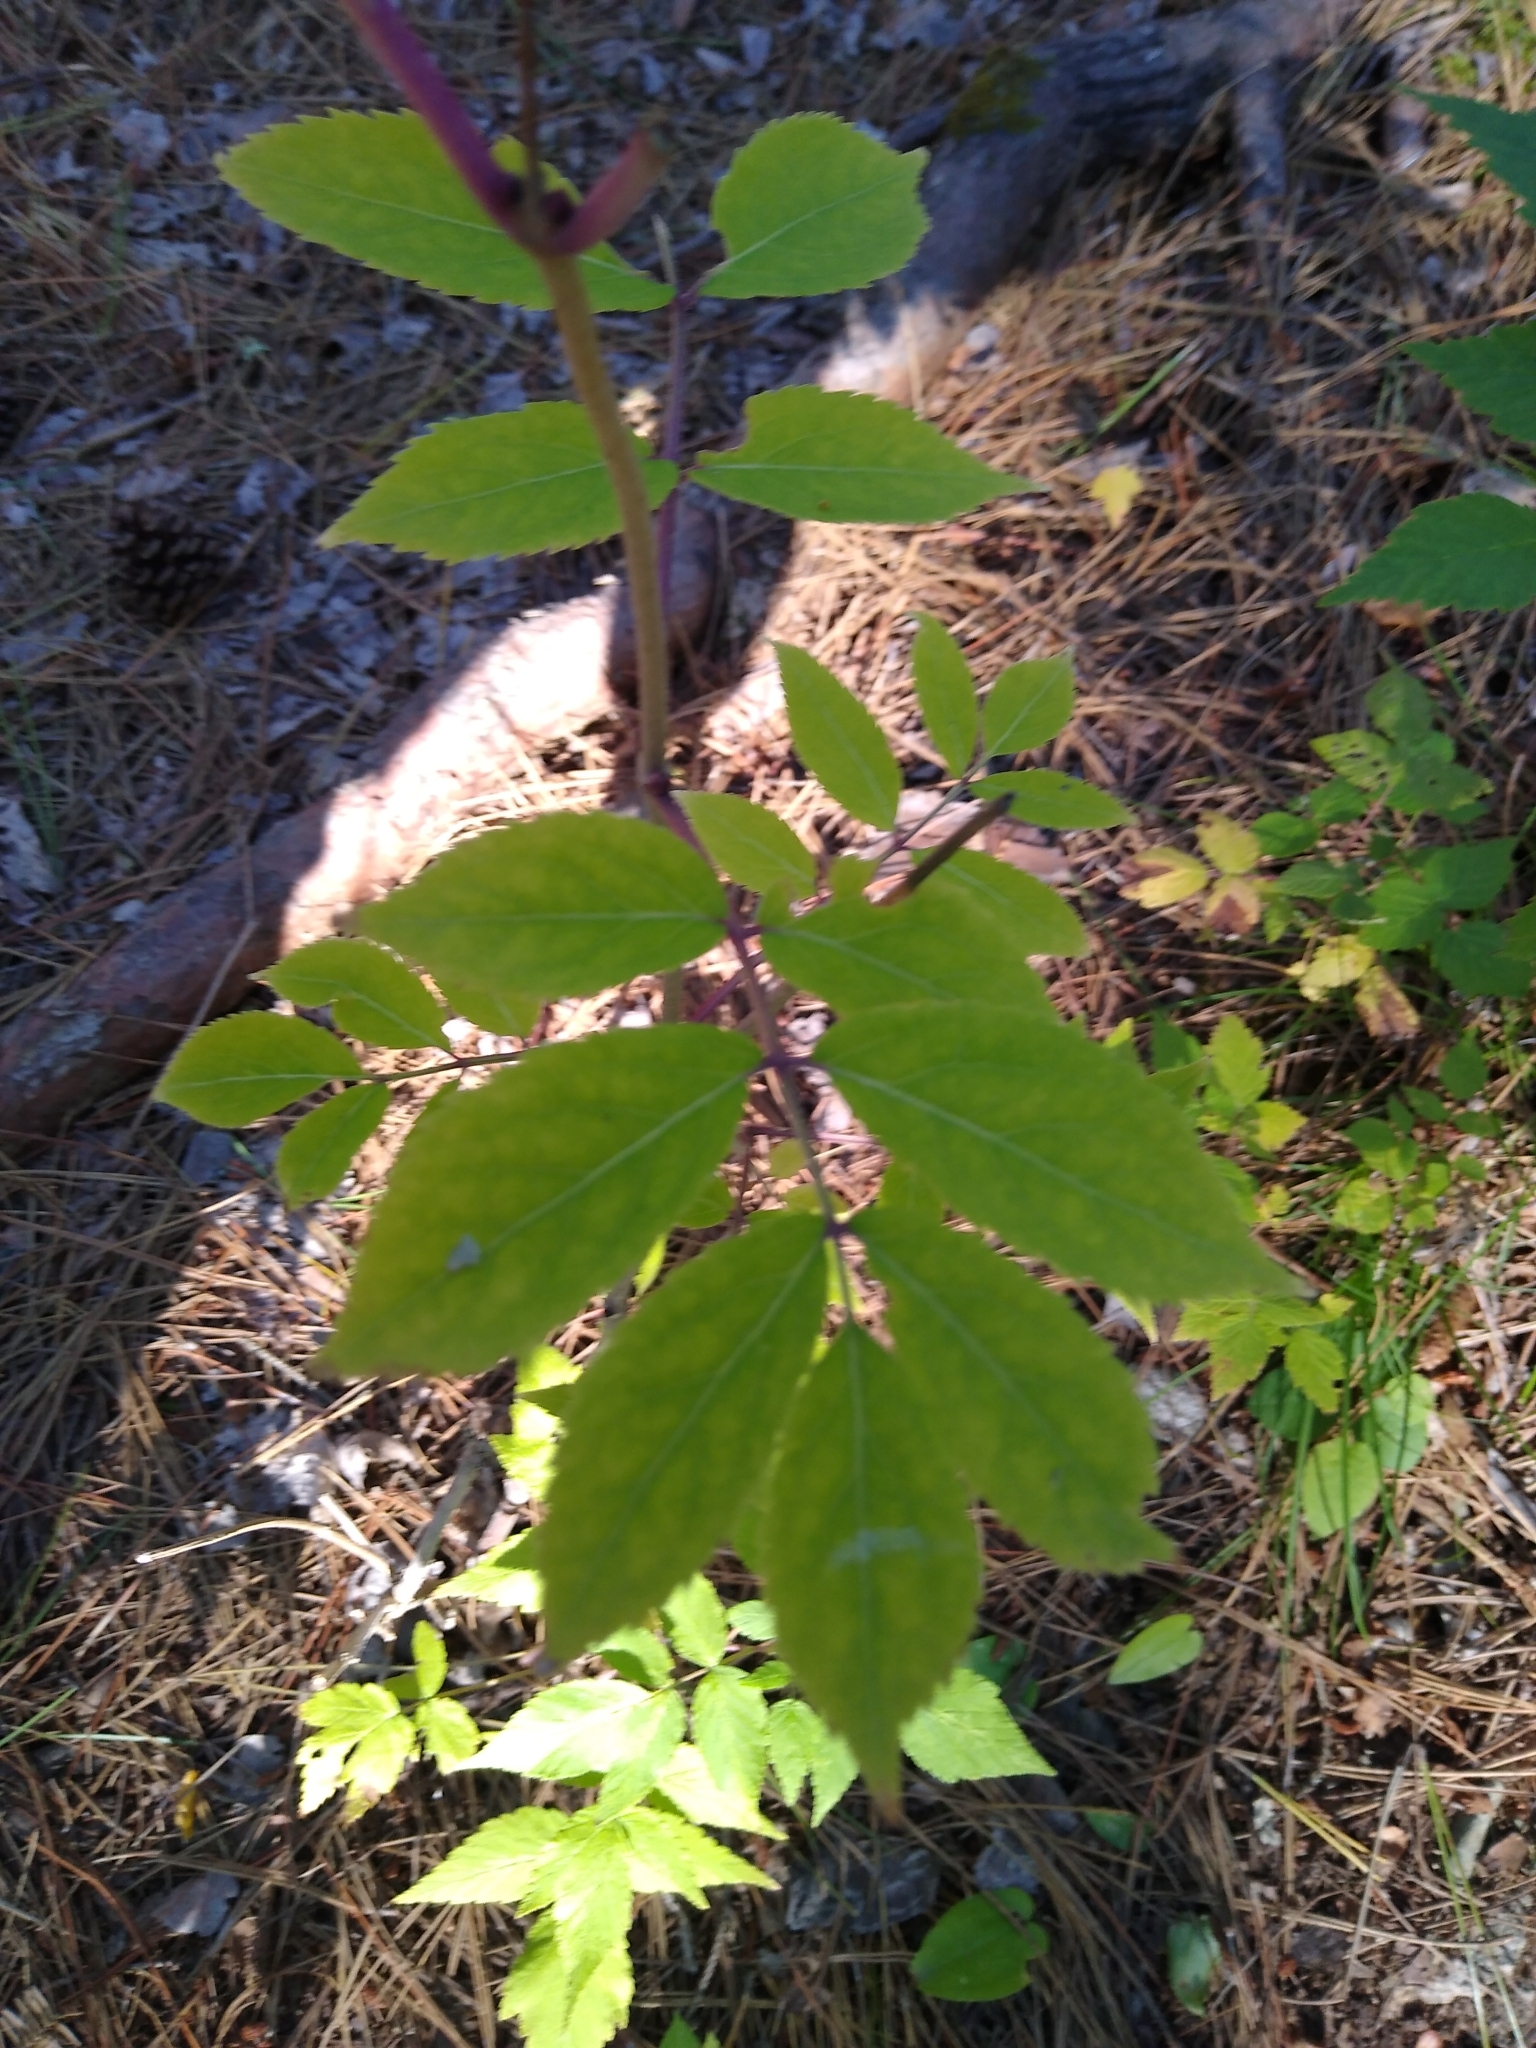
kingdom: Plantae
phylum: Tracheophyta
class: Magnoliopsida
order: Dipsacales
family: Viburnaceae
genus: Sambucus
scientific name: Sambucus racemosa
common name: Red-berried elder
